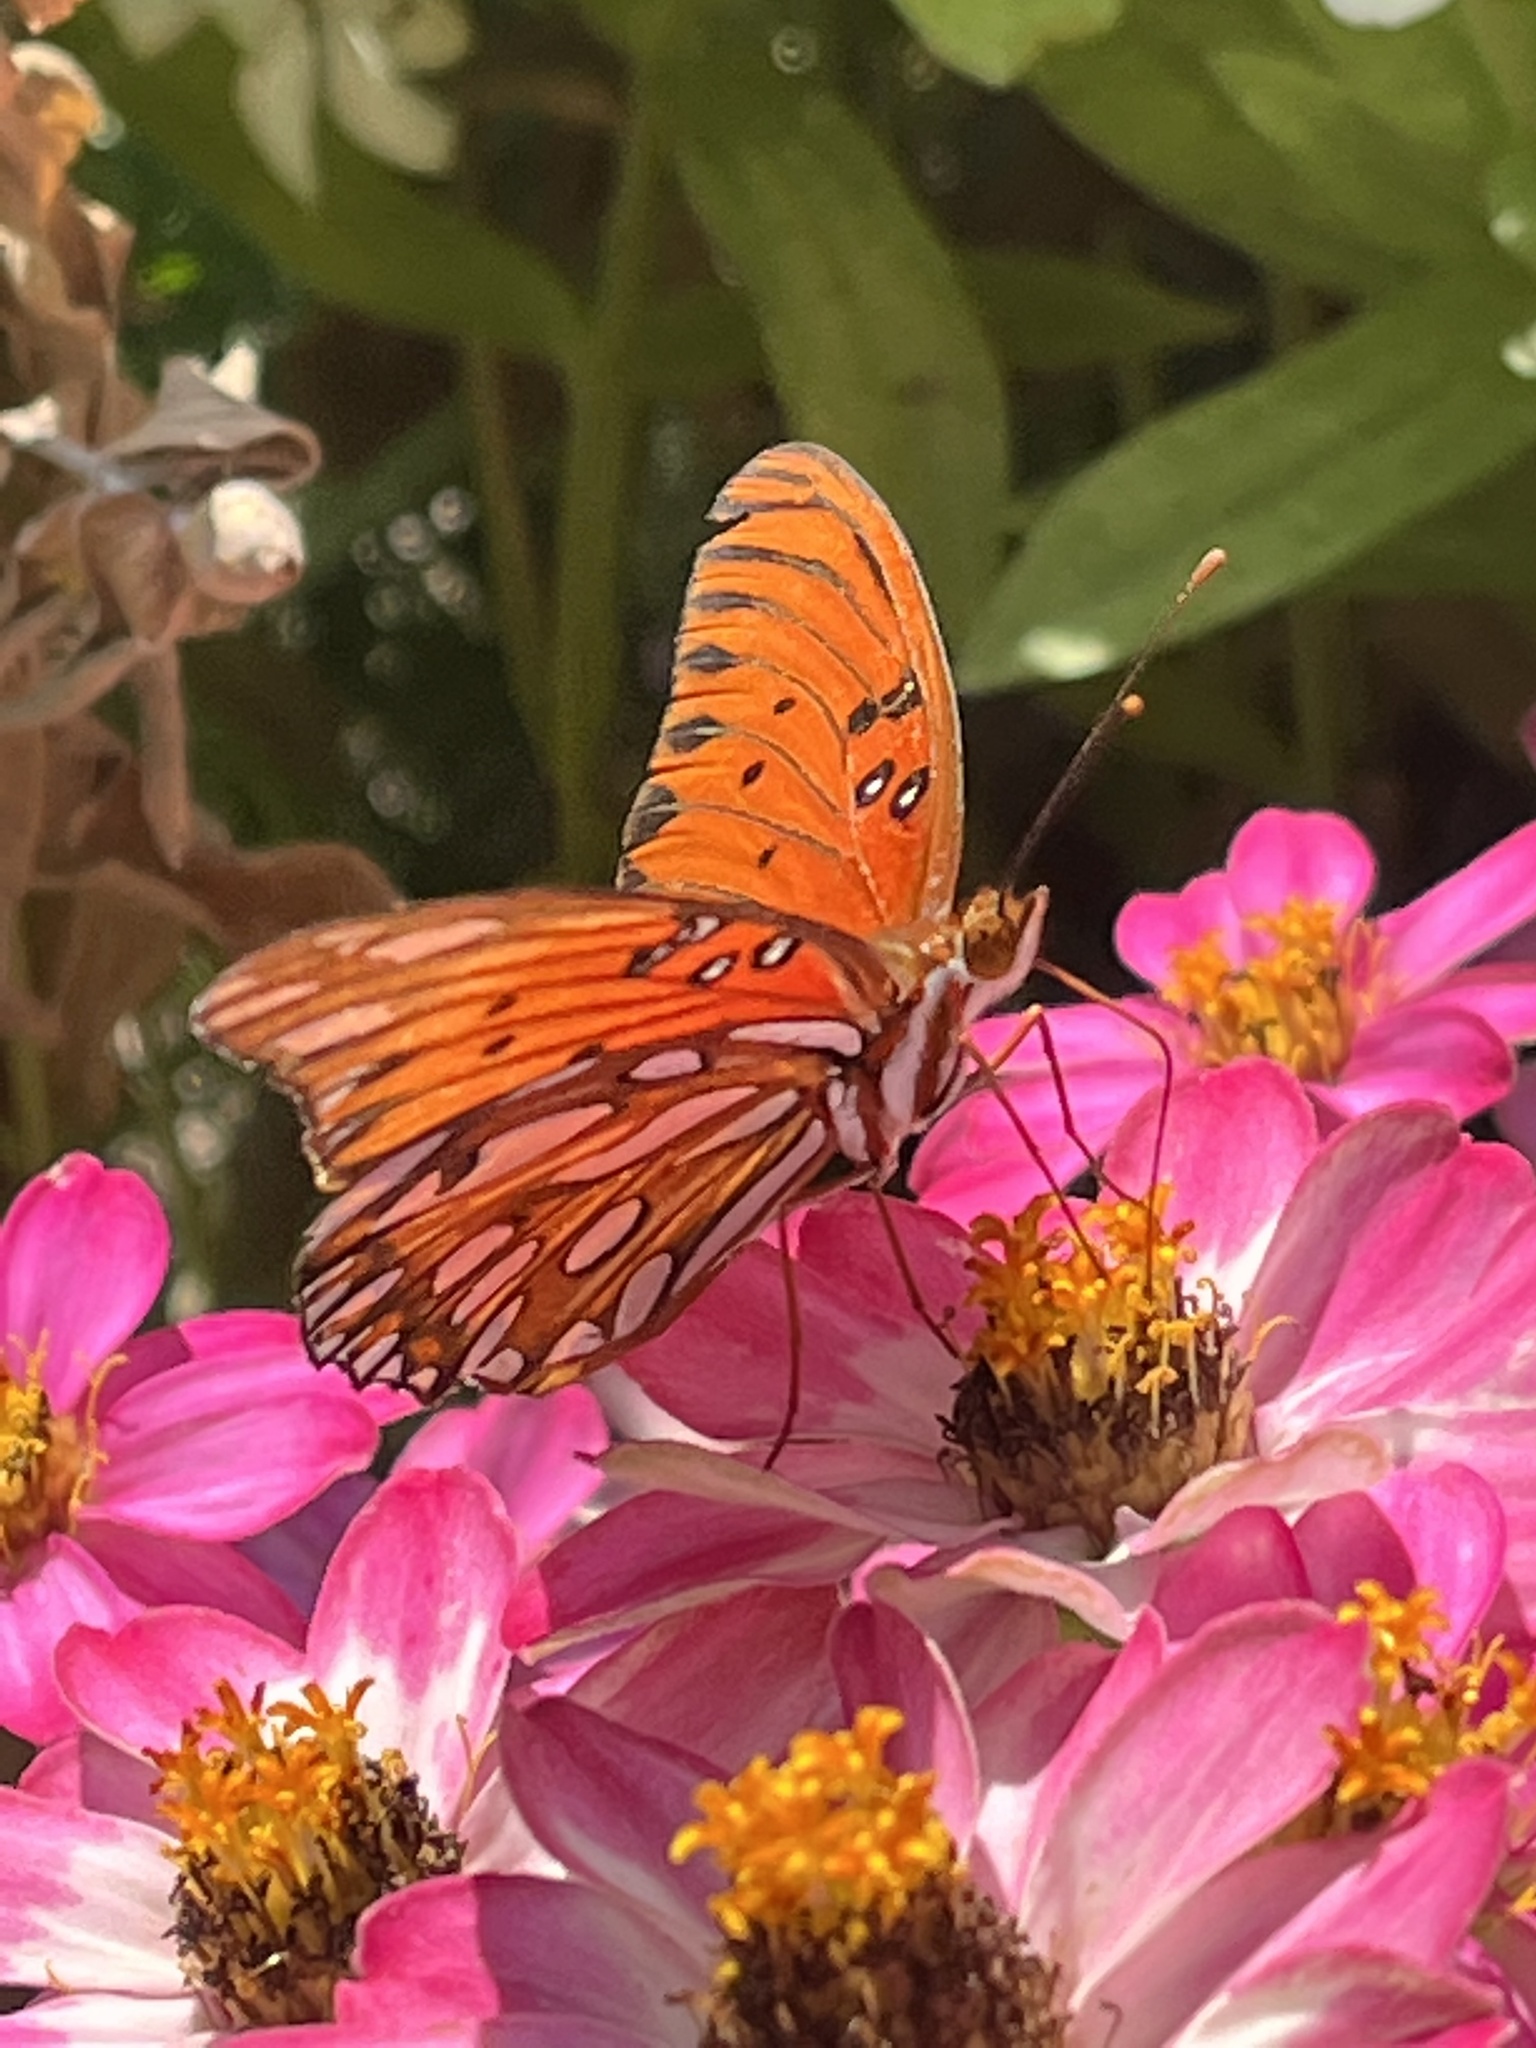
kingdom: Animalia
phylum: Arthropoda
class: Insecta
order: Lepidoptera
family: Nymphalidae
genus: Dione
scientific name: Dione vanillae
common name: Gulf fritillary
